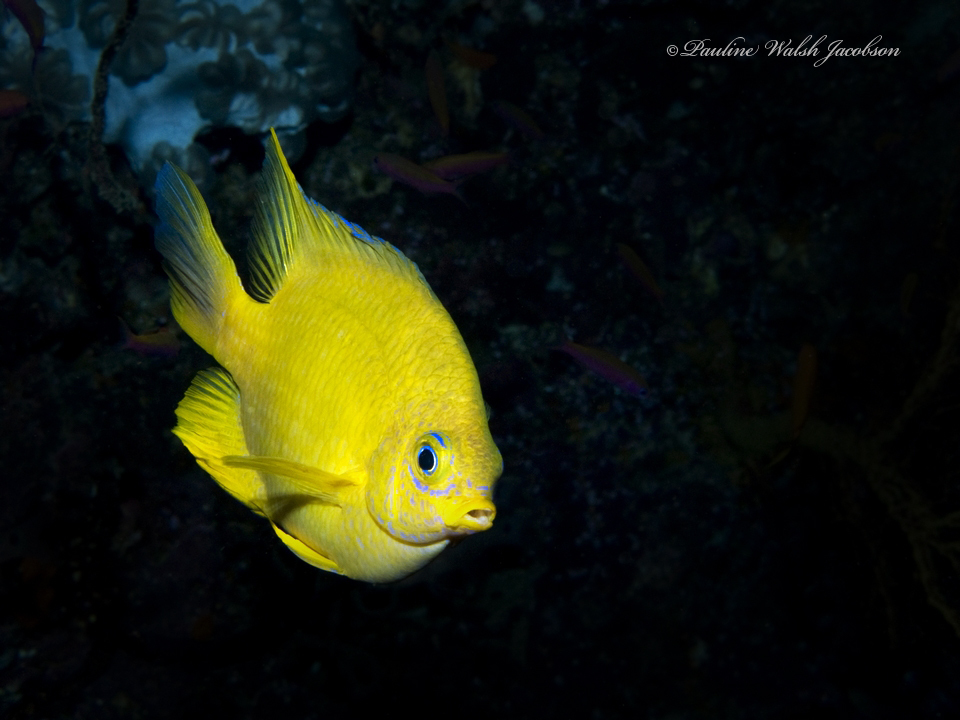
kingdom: Animalia
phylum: Chordata
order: Perciformes
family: Pomacentridae
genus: Amblyglyphidodon
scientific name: Amblyglyphidodon aureus
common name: Golden damsel
